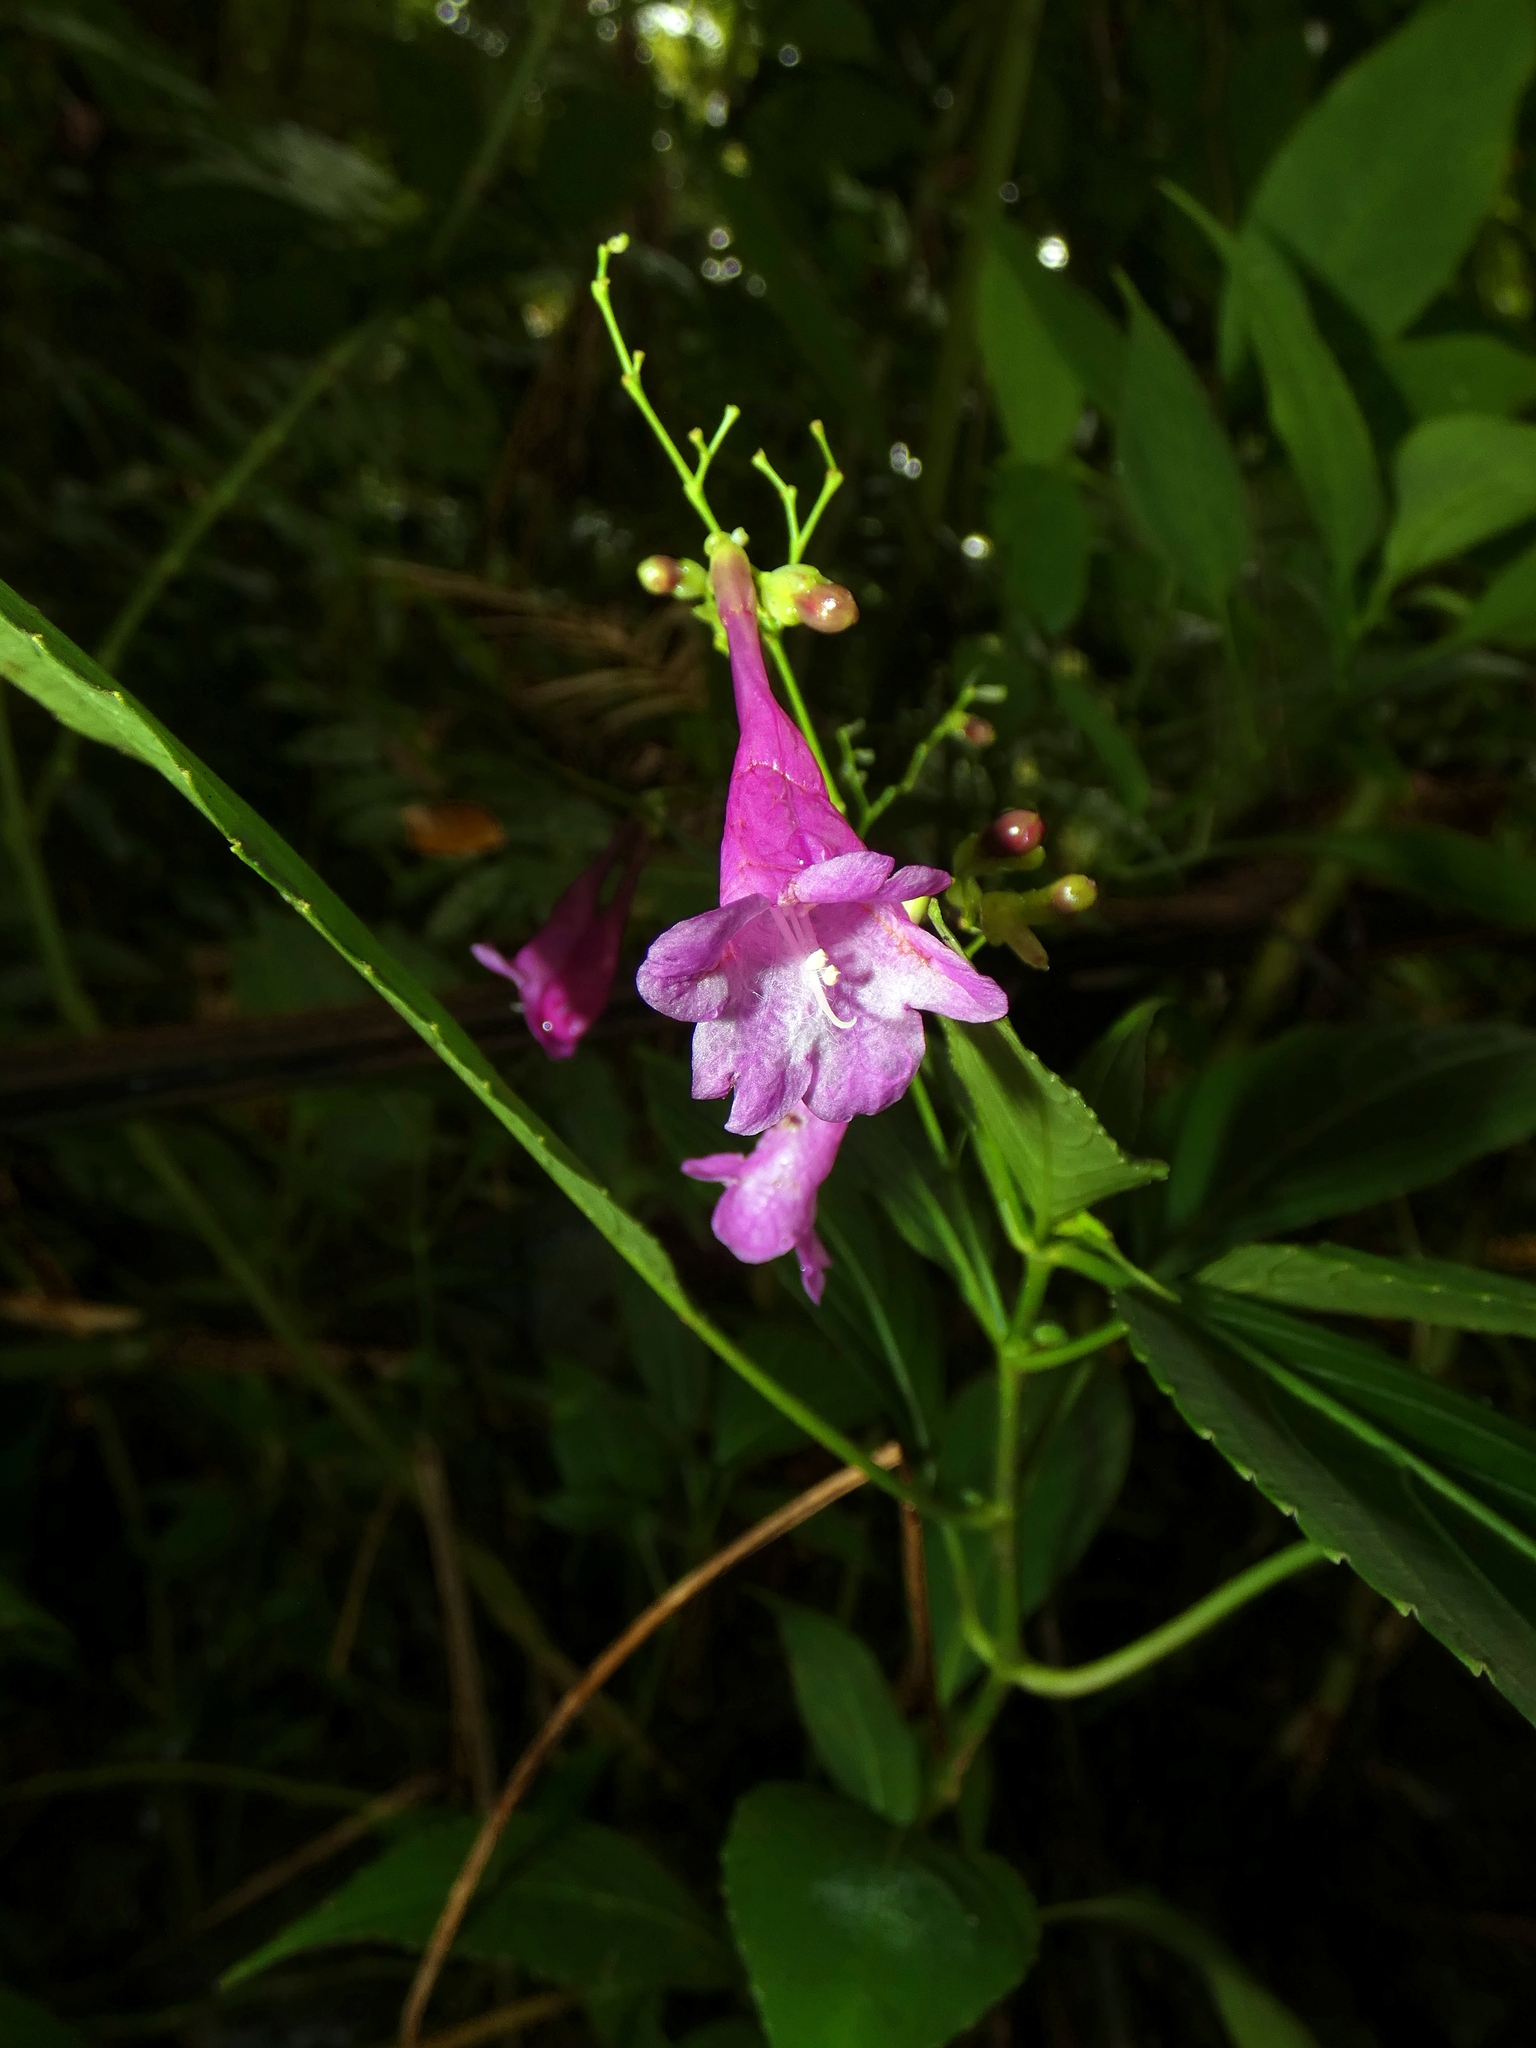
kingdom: Plantae
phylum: Tracheophyta
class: Magnoliopsida
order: Lamiales
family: Acanthaceae
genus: Strobilanthes
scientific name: Strobilanthes hamiltoniana
